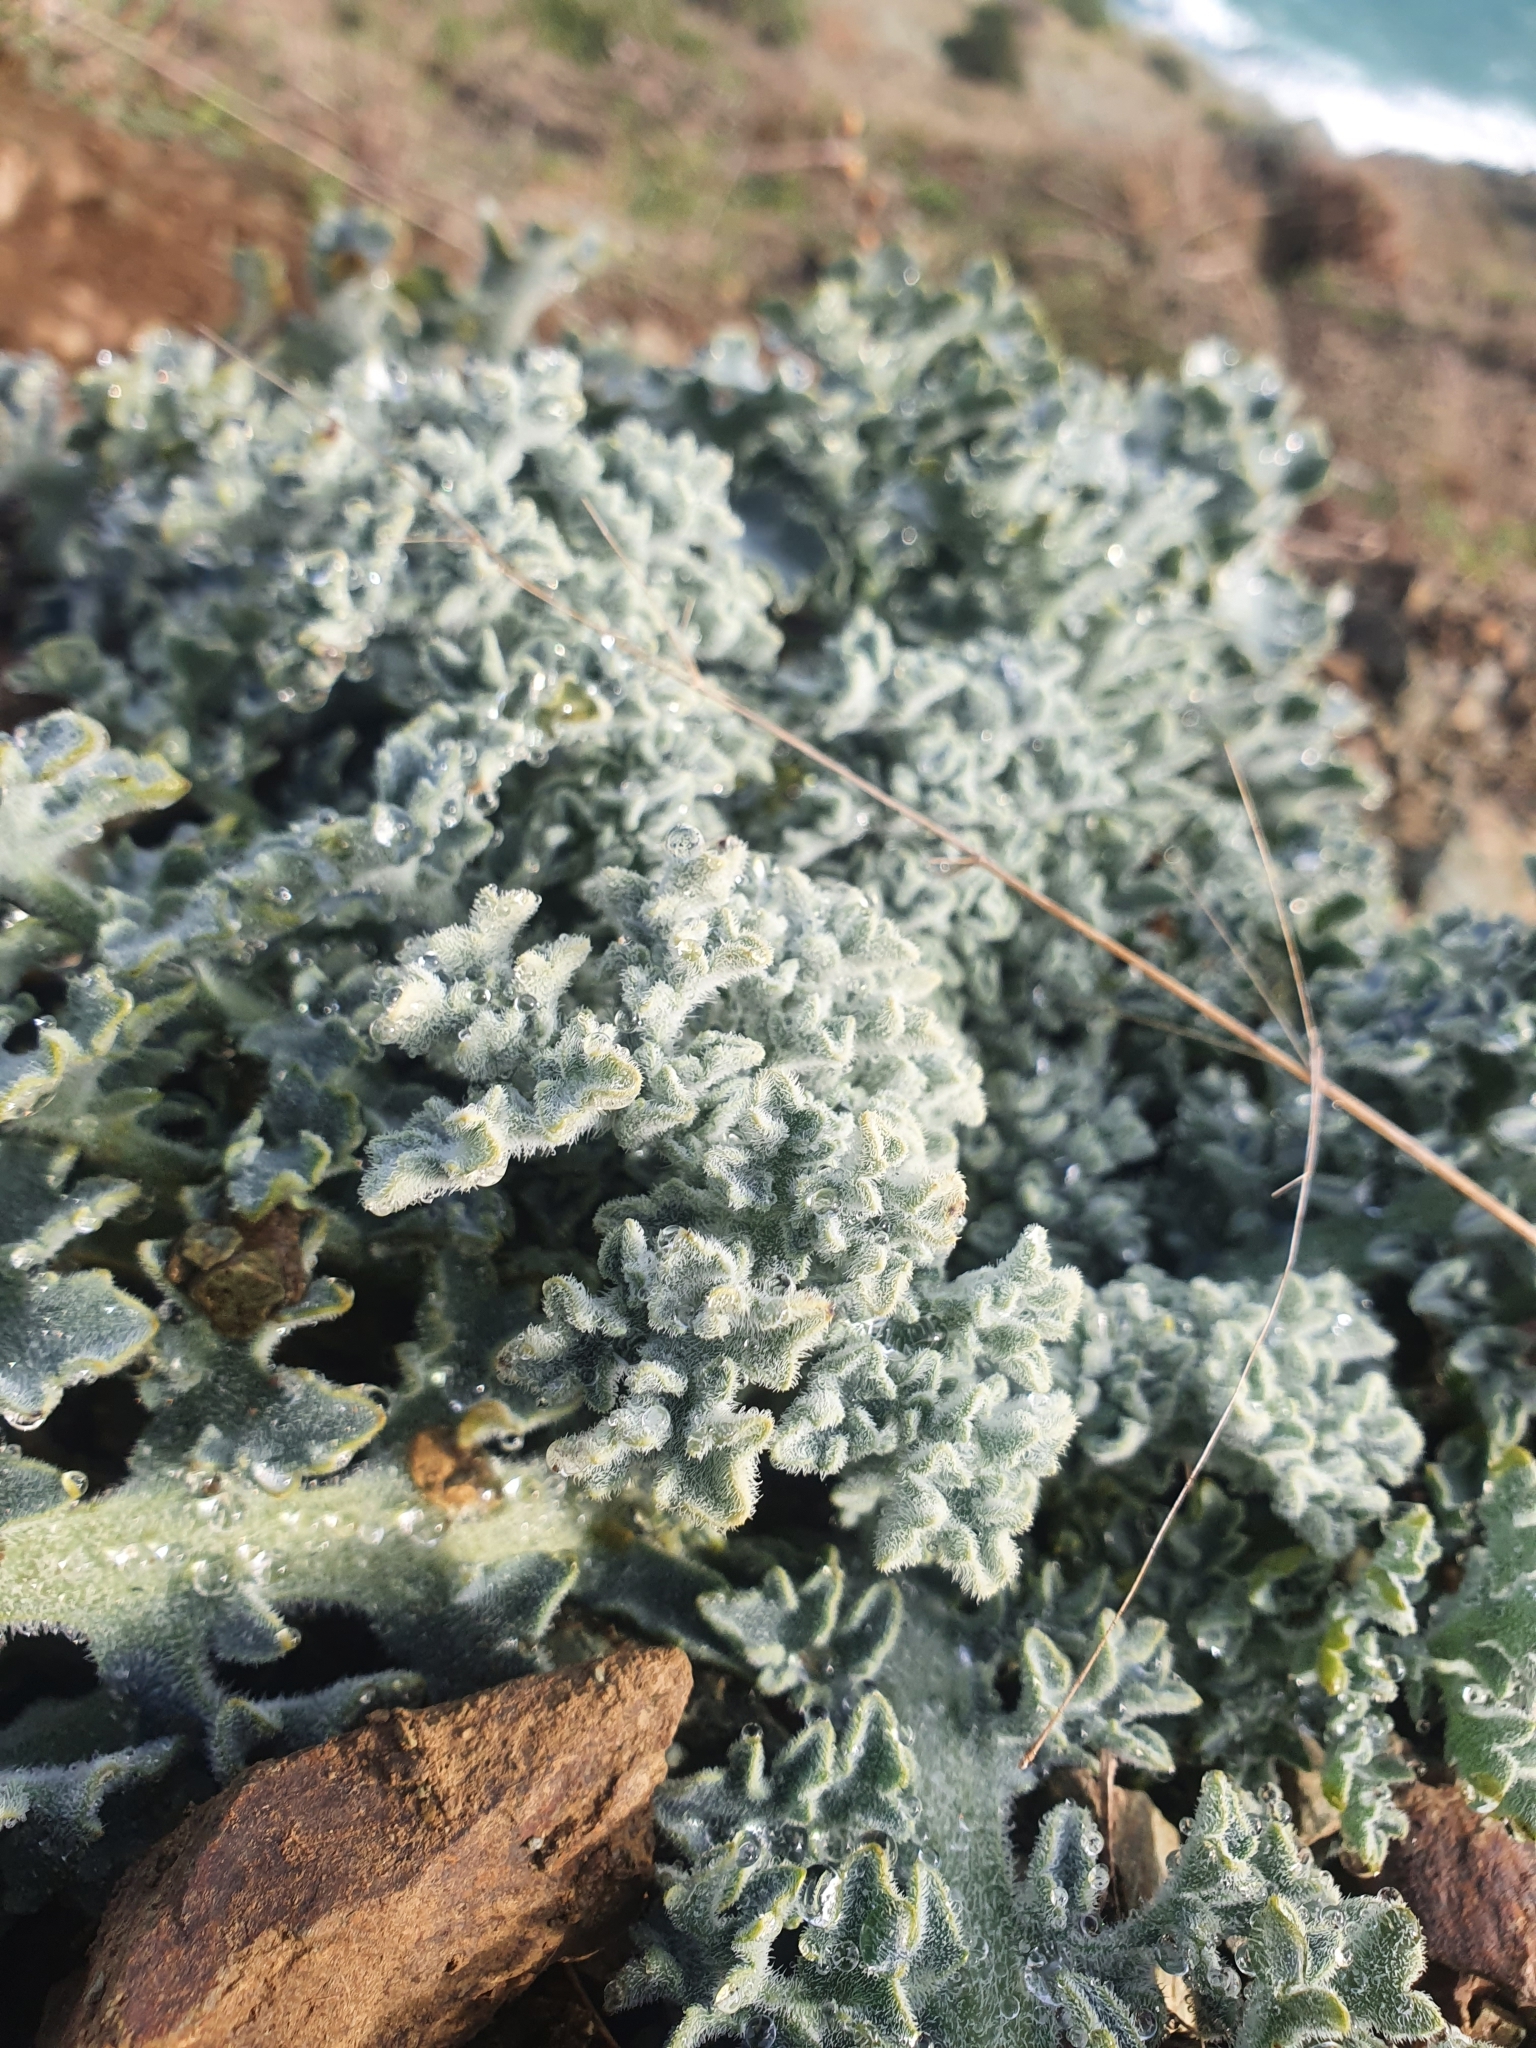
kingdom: Plantae
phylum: Tracheophyta
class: Magnoliopsida
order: Ranunculales
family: Papaveraceae
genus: Glaucium
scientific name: Glaucium flavum
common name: Yellow horned-poppy
